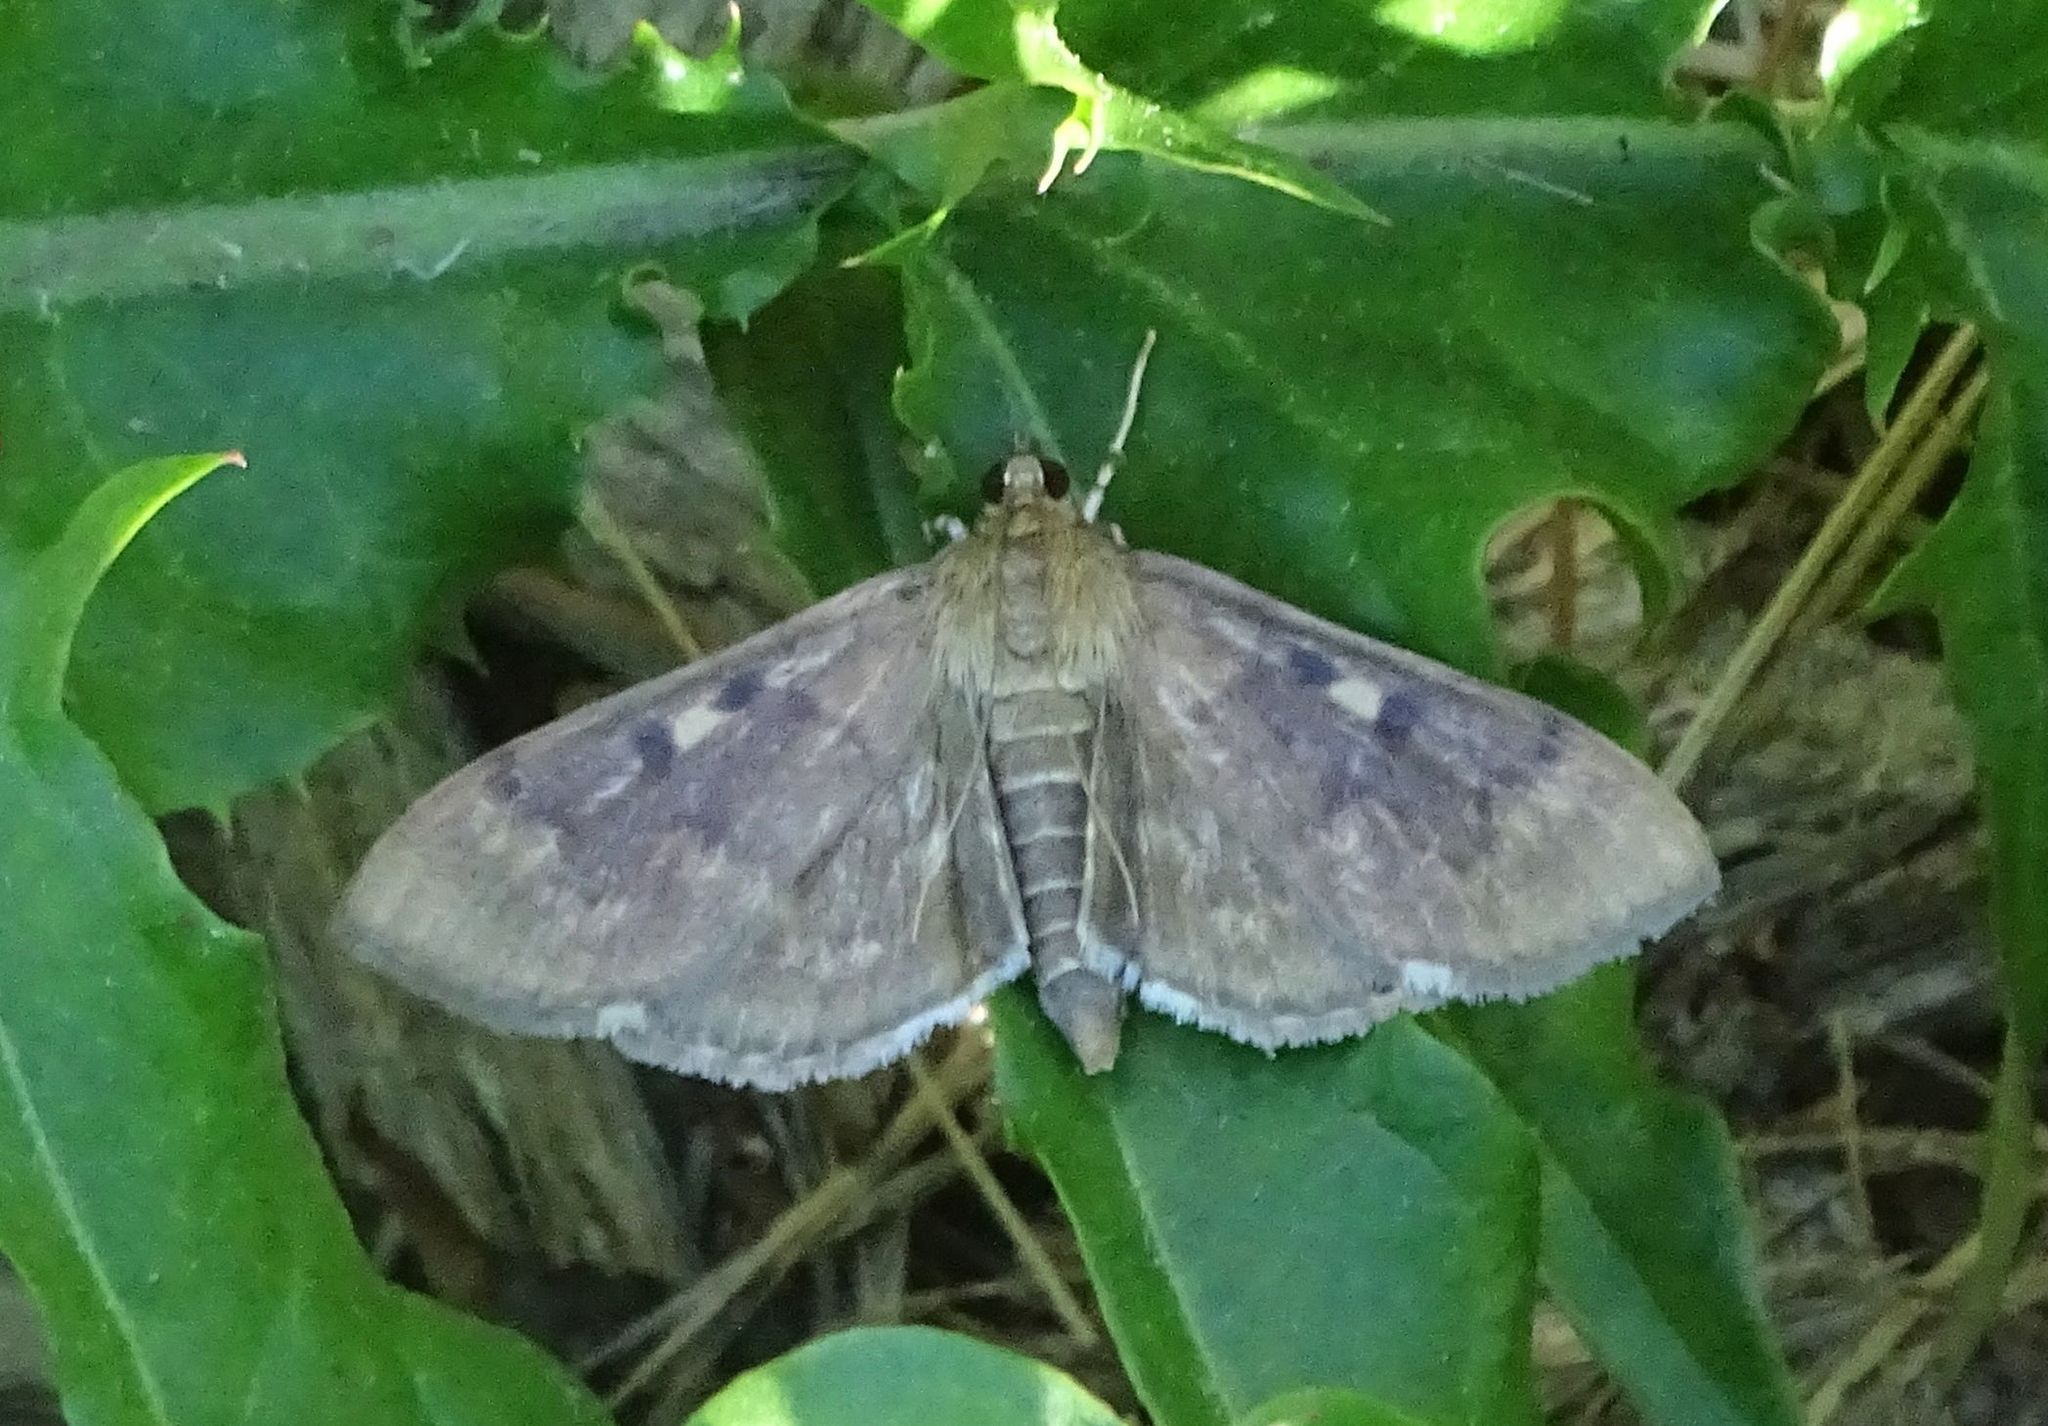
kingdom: Animalia
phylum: Arthropoda
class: Insecta
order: Lepidoptera
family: Crambidae
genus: Herpetogramma
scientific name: Herpetogramma sphingealis
